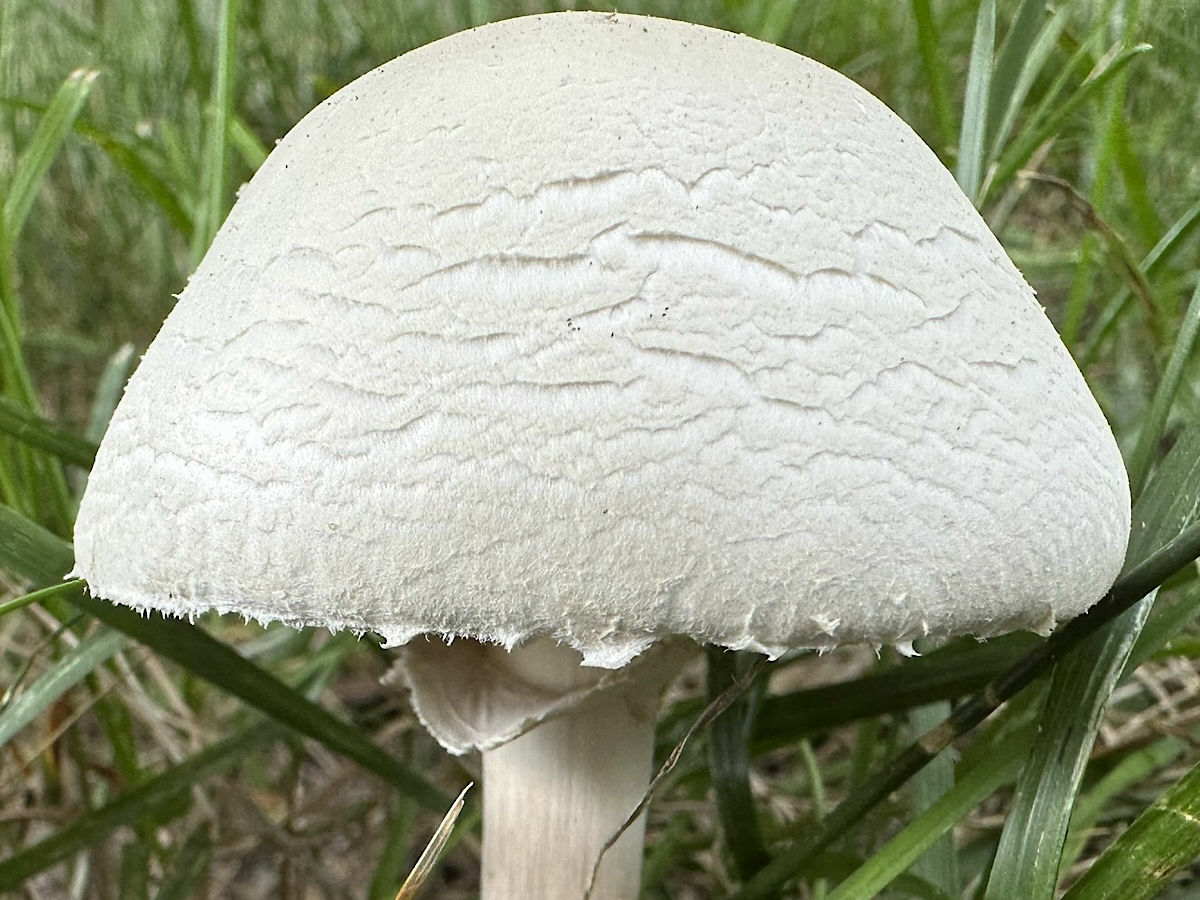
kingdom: Fungi
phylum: Basidiomycota
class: Agaricomycetes
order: Agaricales
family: Agaricaceae
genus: Leucoagaricus
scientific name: Leucoagaricus leucothites
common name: White dapperling
